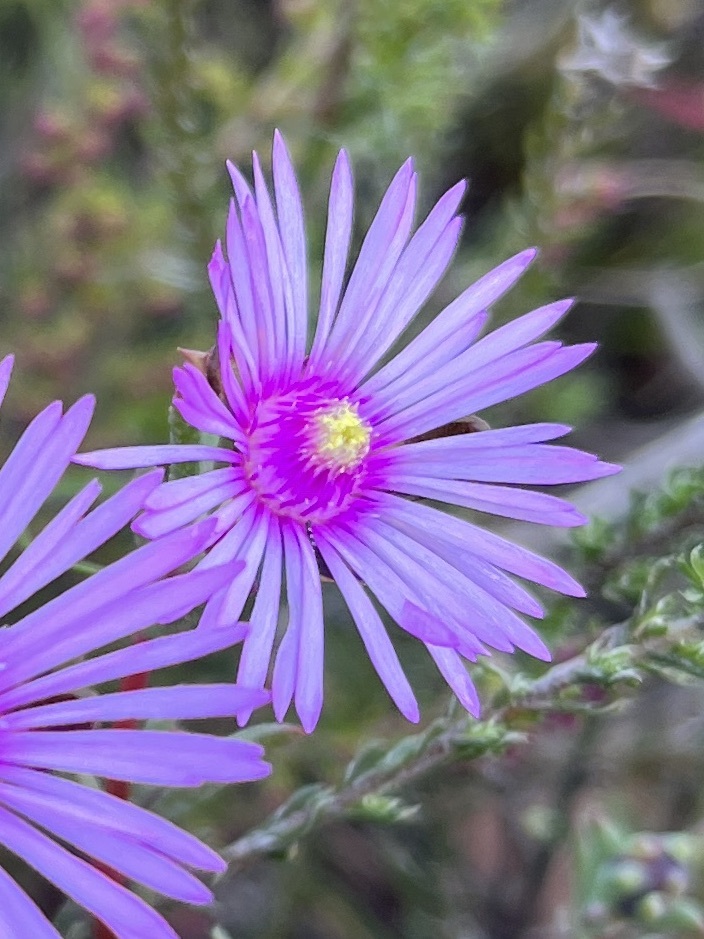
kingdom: Plantae
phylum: Tracheophyta
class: Magnoliopsida
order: Caryophyllales
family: Aizoaceae
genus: Lampranthus
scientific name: Lampranthus elegans
